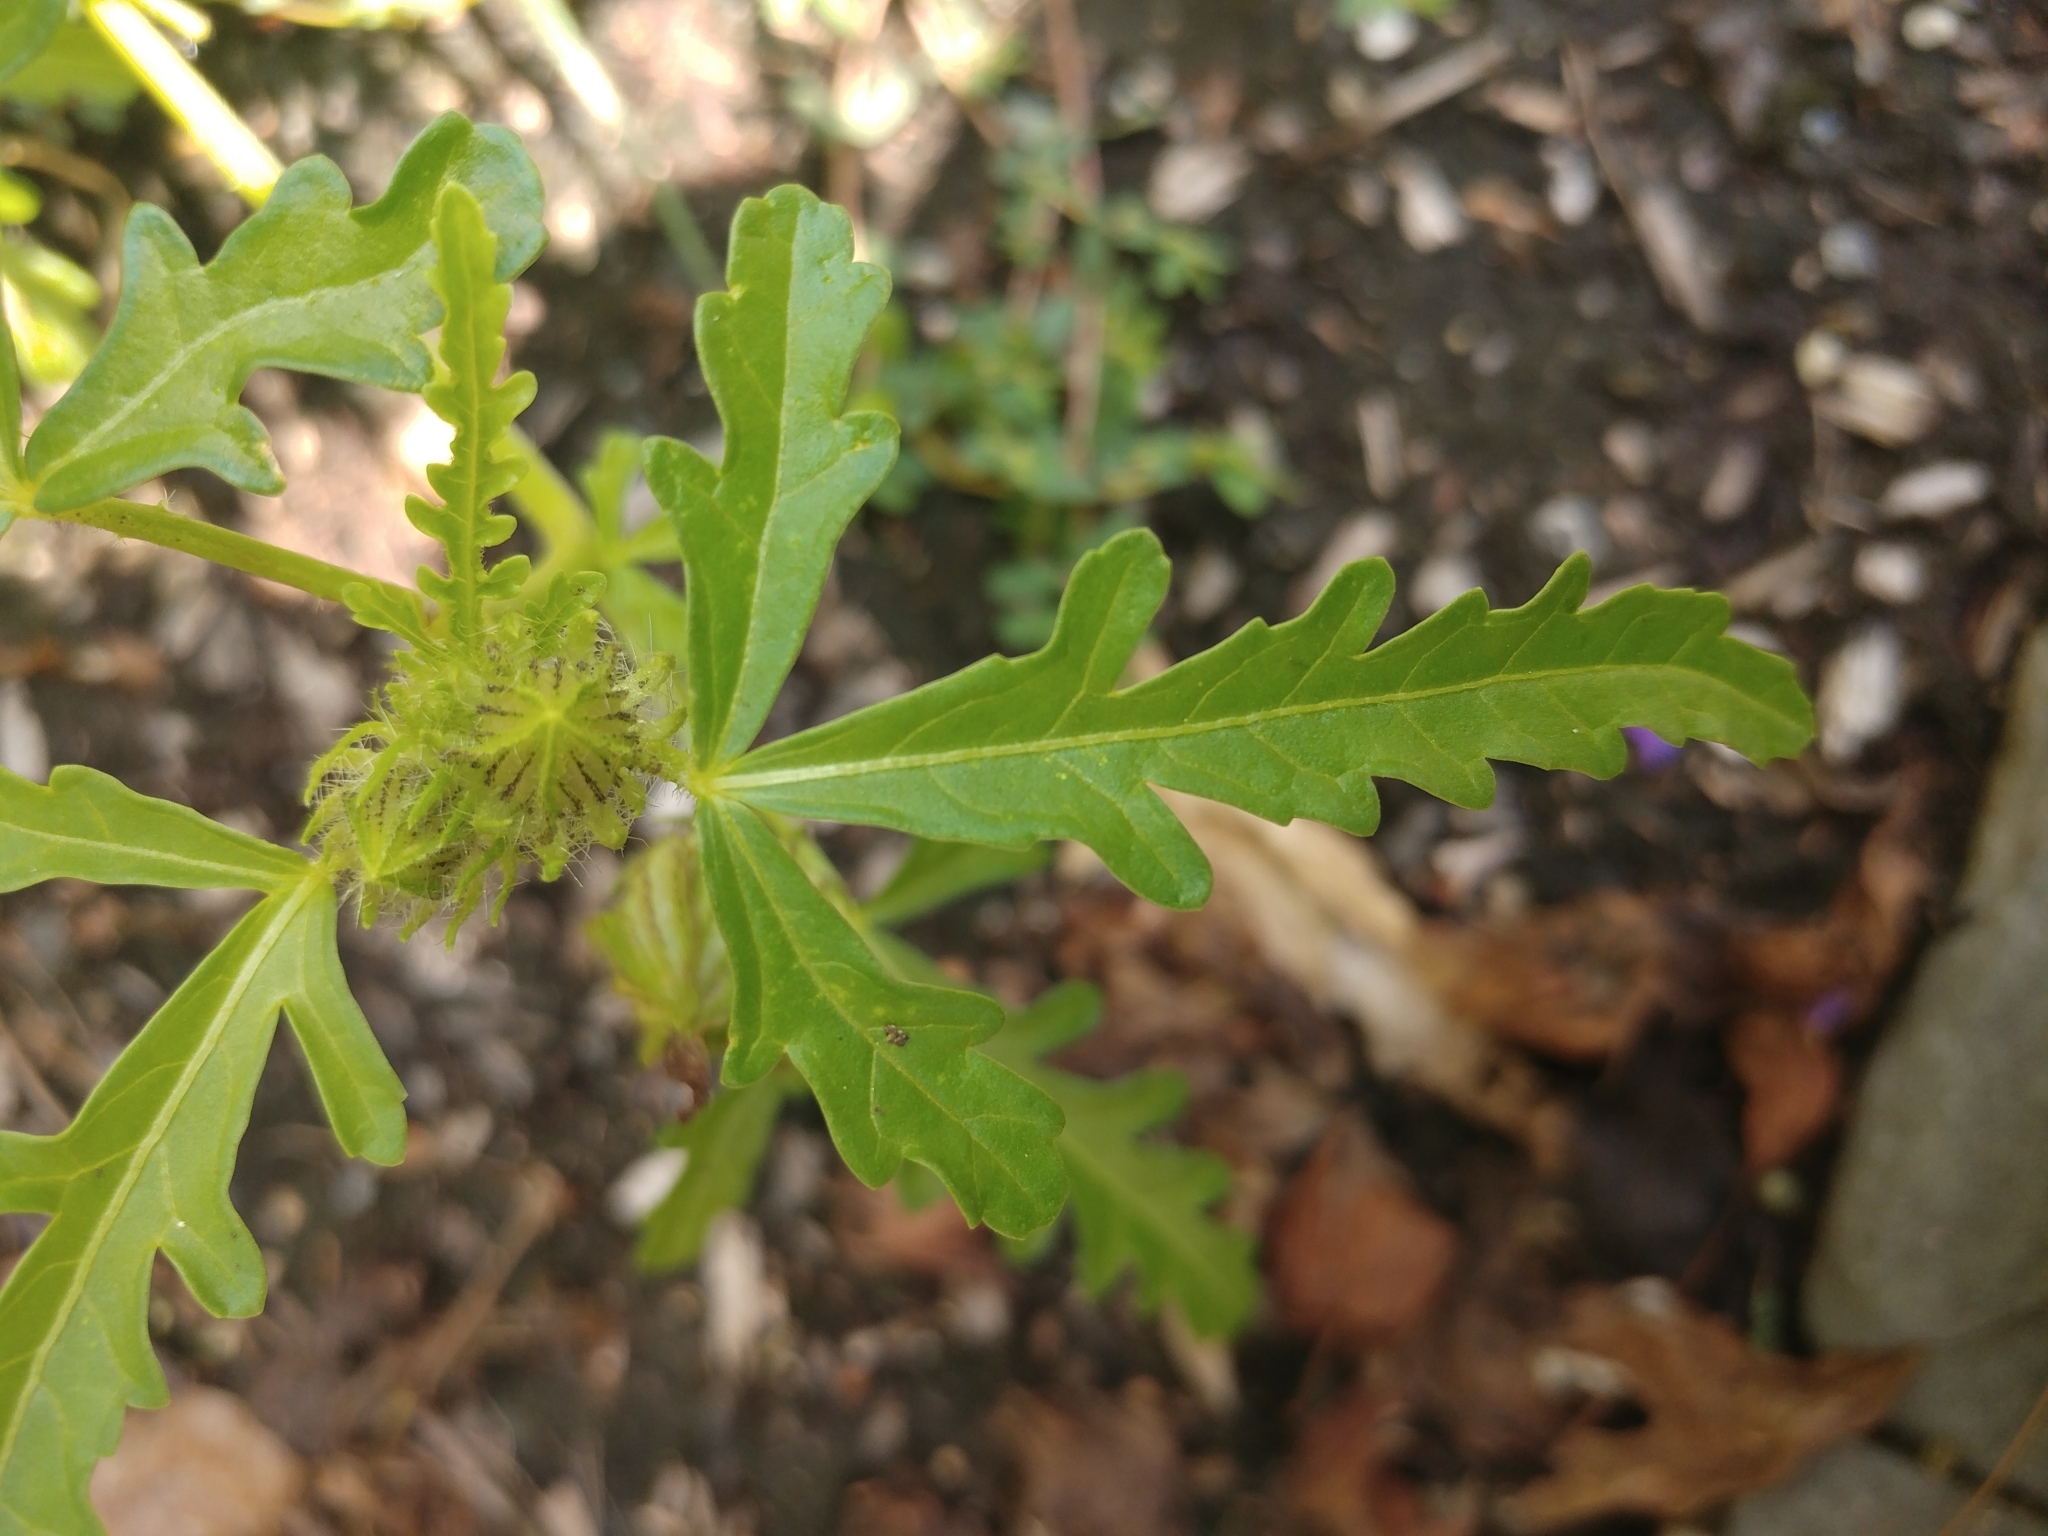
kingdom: Plantae
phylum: Tracheophyta
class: Magnoliopsida
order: Malvales
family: Malvaceae
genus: Hibiscus
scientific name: Hibiscus trionum
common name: Bladder ketmia
